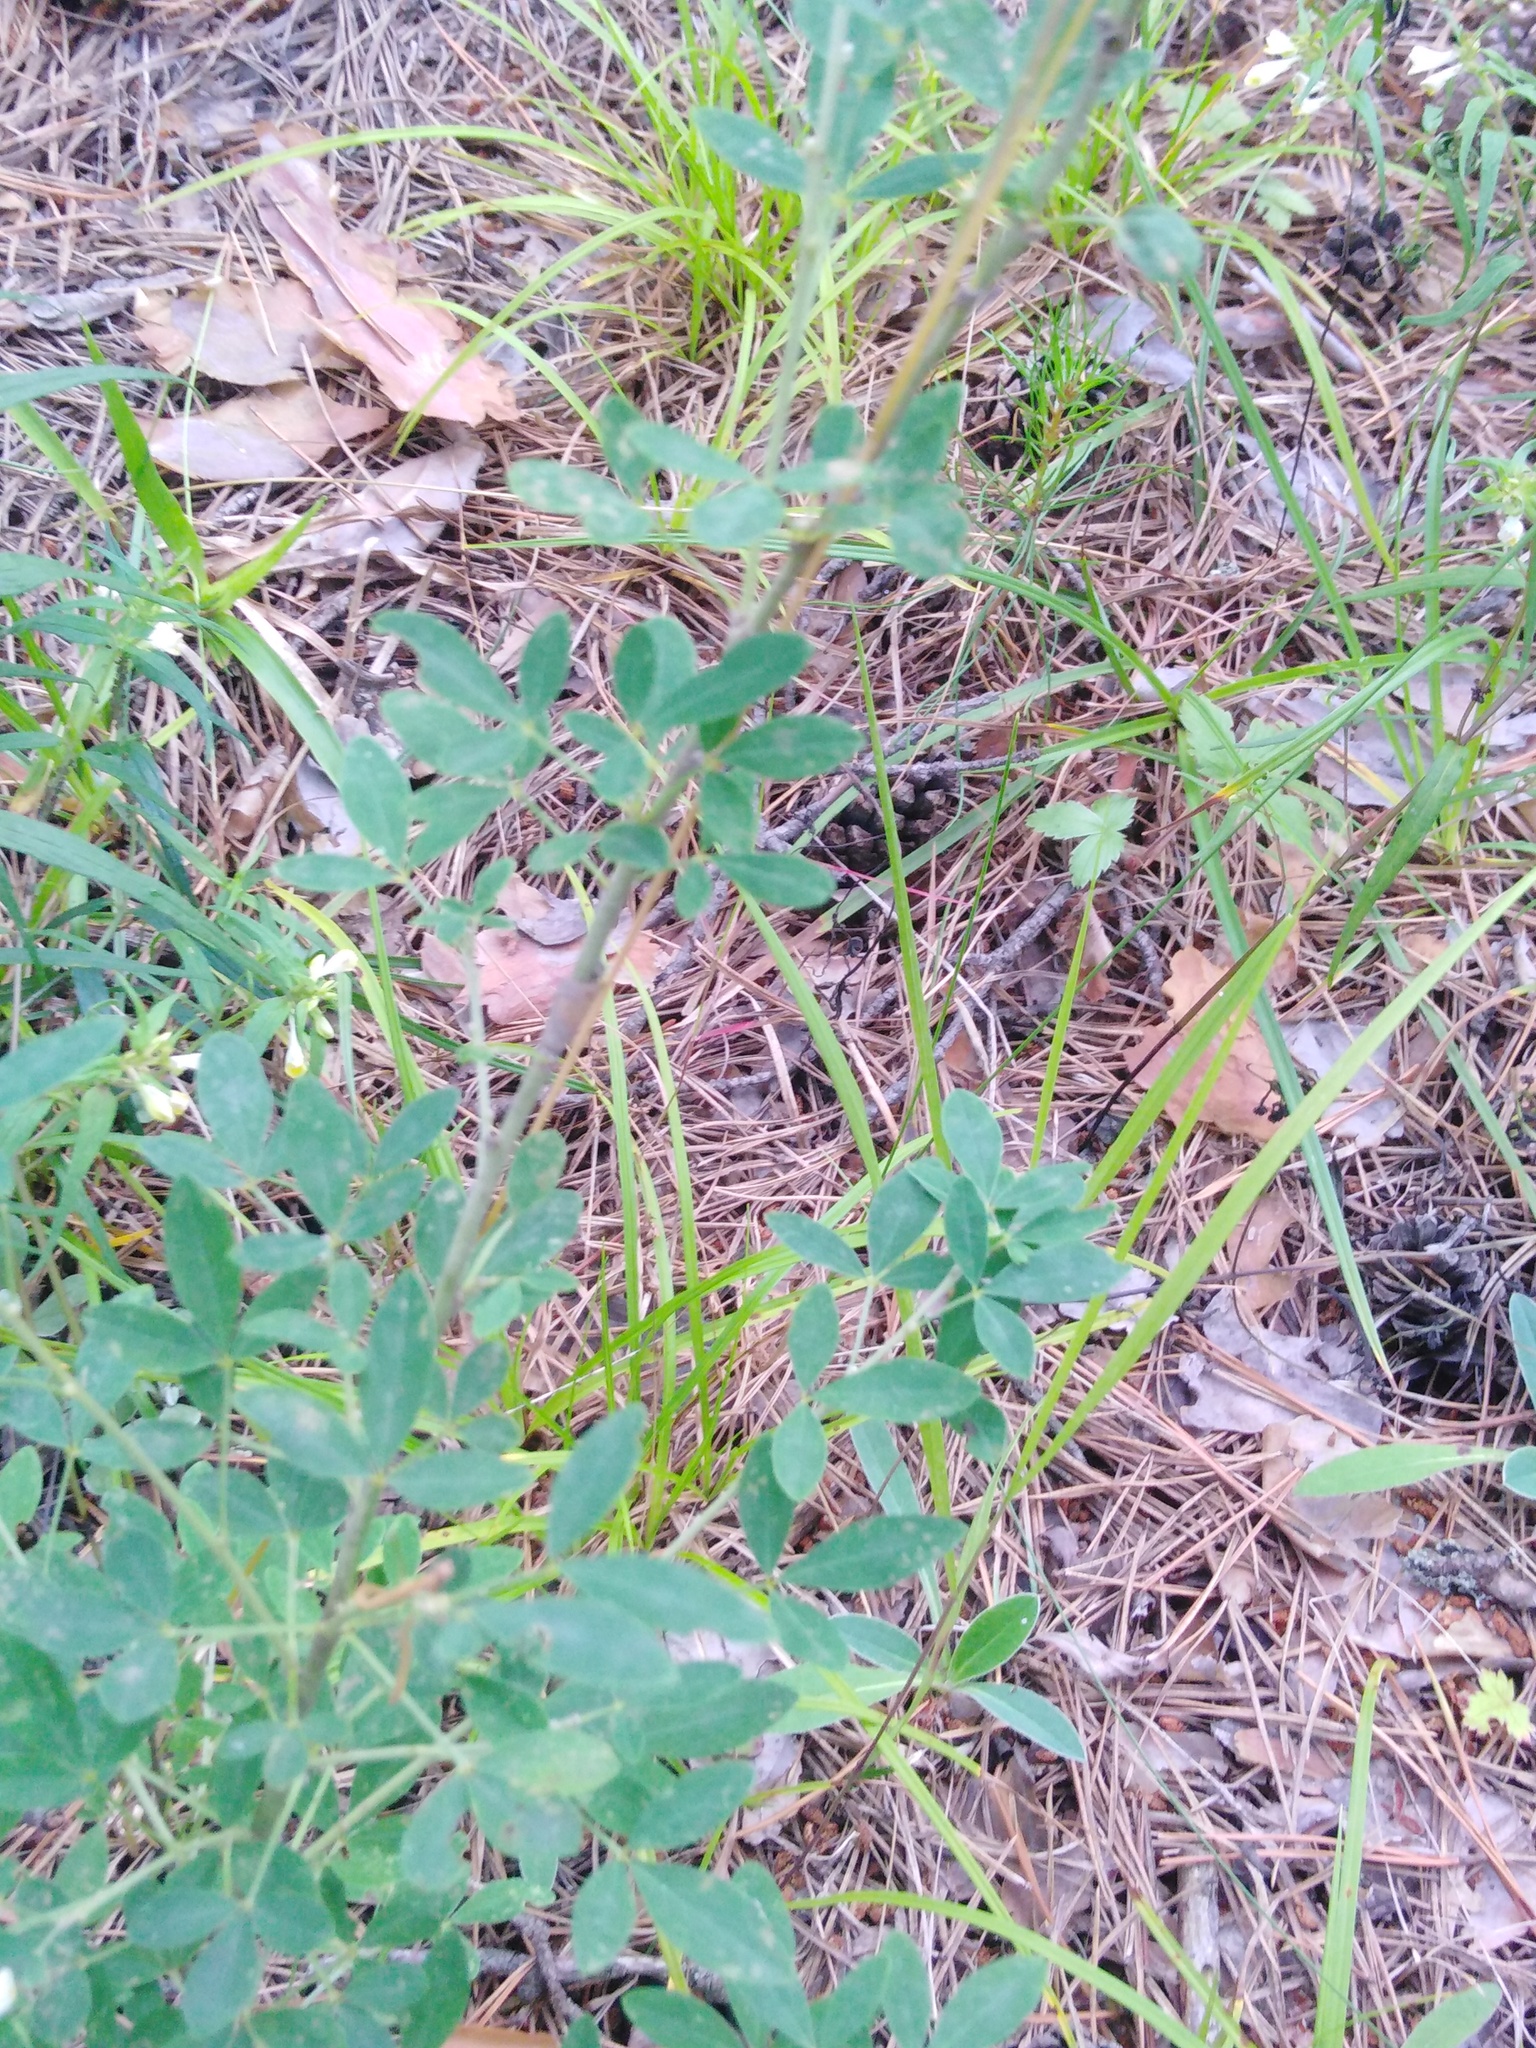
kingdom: Plantae
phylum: Tracheophyta
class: Magnoliopsida
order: Fabales
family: Fabaceae
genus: Chamaecytisus
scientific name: Chamaecytisus ruthenicus
